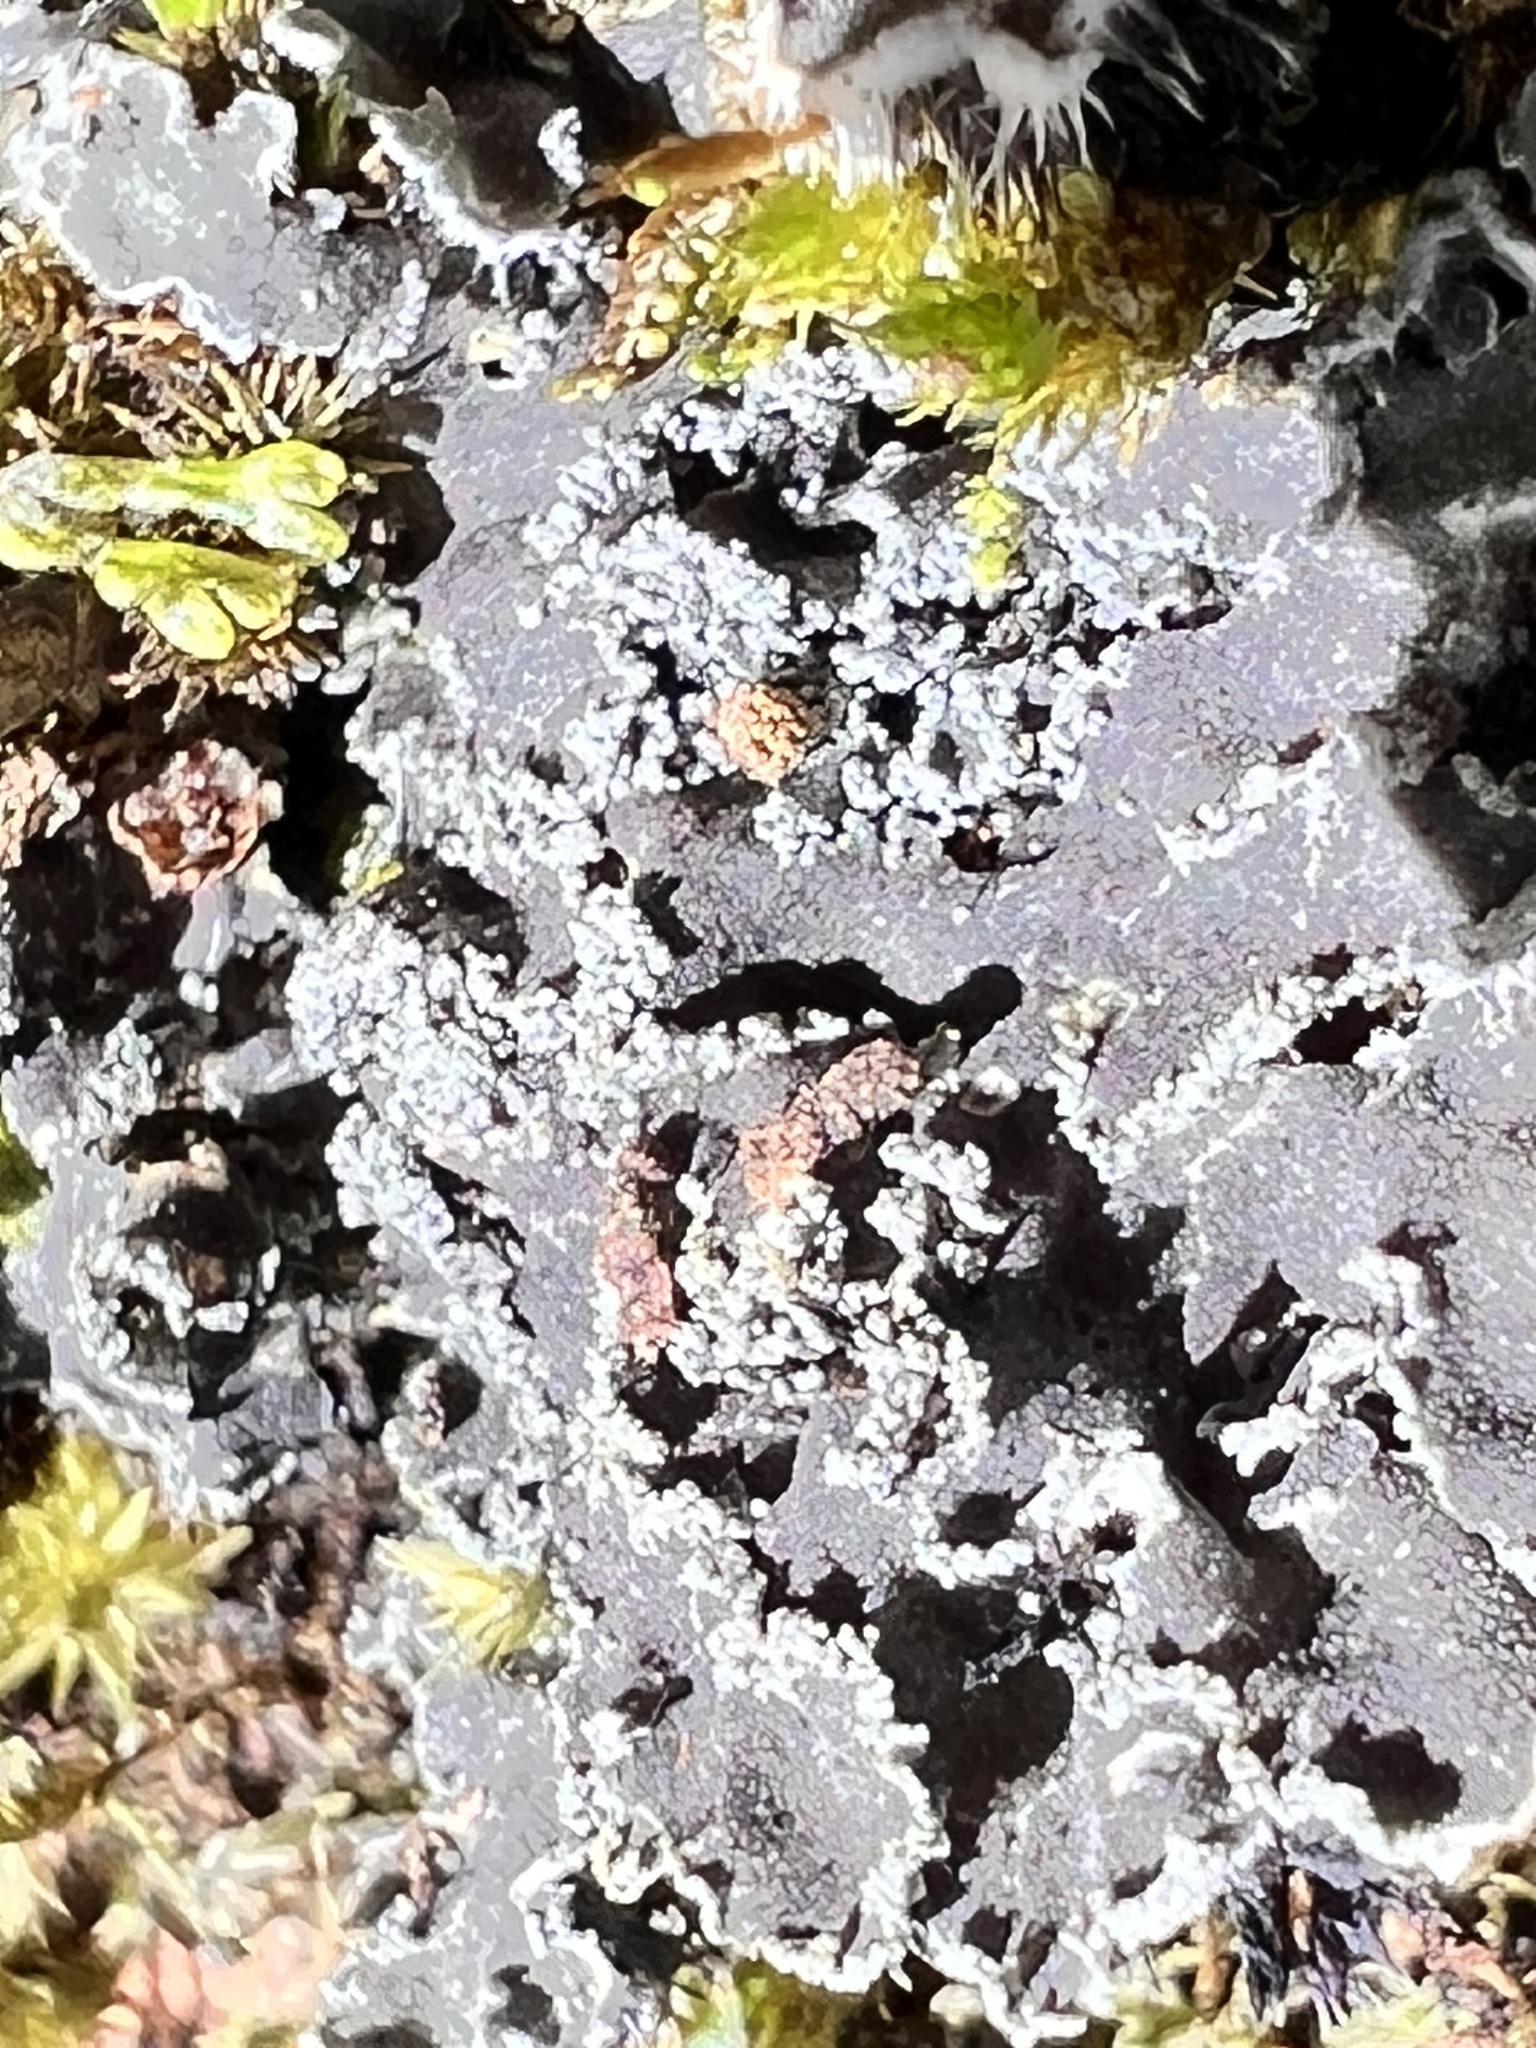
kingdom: Fungi
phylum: Ascomycota
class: Lecanoromycetes
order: Peltigerales
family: Pannariaceae
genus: Leioderma
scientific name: Leioderma amphibolum
